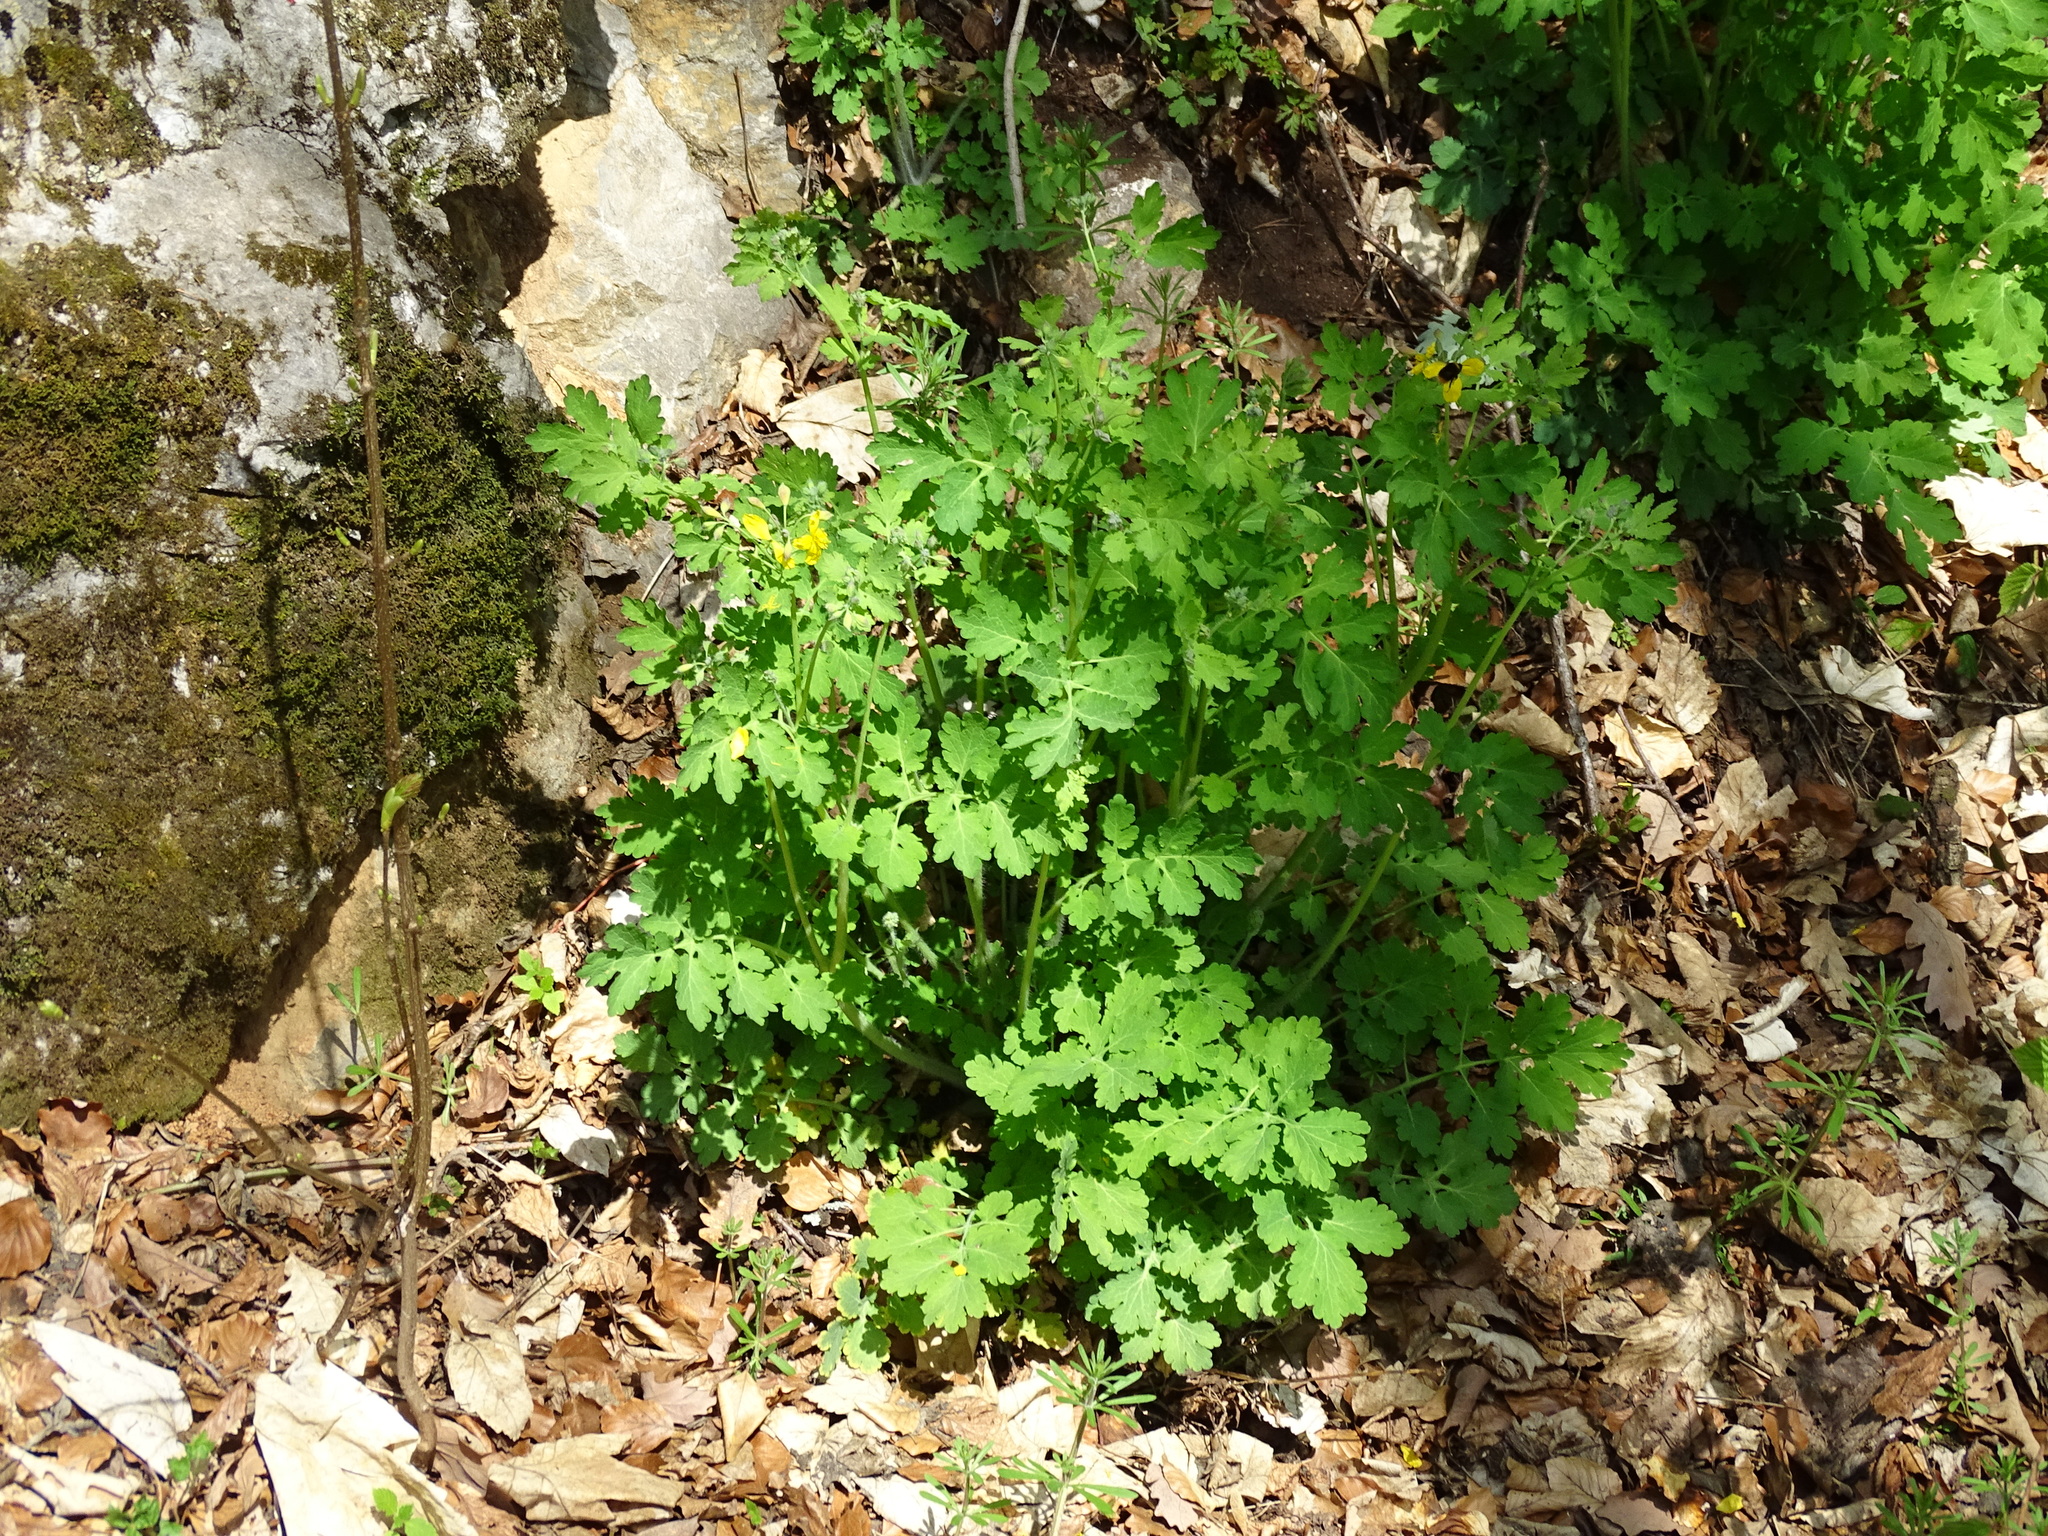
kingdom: Plantae
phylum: Tracheophyta
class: Magnoliopsida
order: Ranunculales
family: Papaveraceae
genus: Chelidonium
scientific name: Chelidonium majus
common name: Greater celandine
